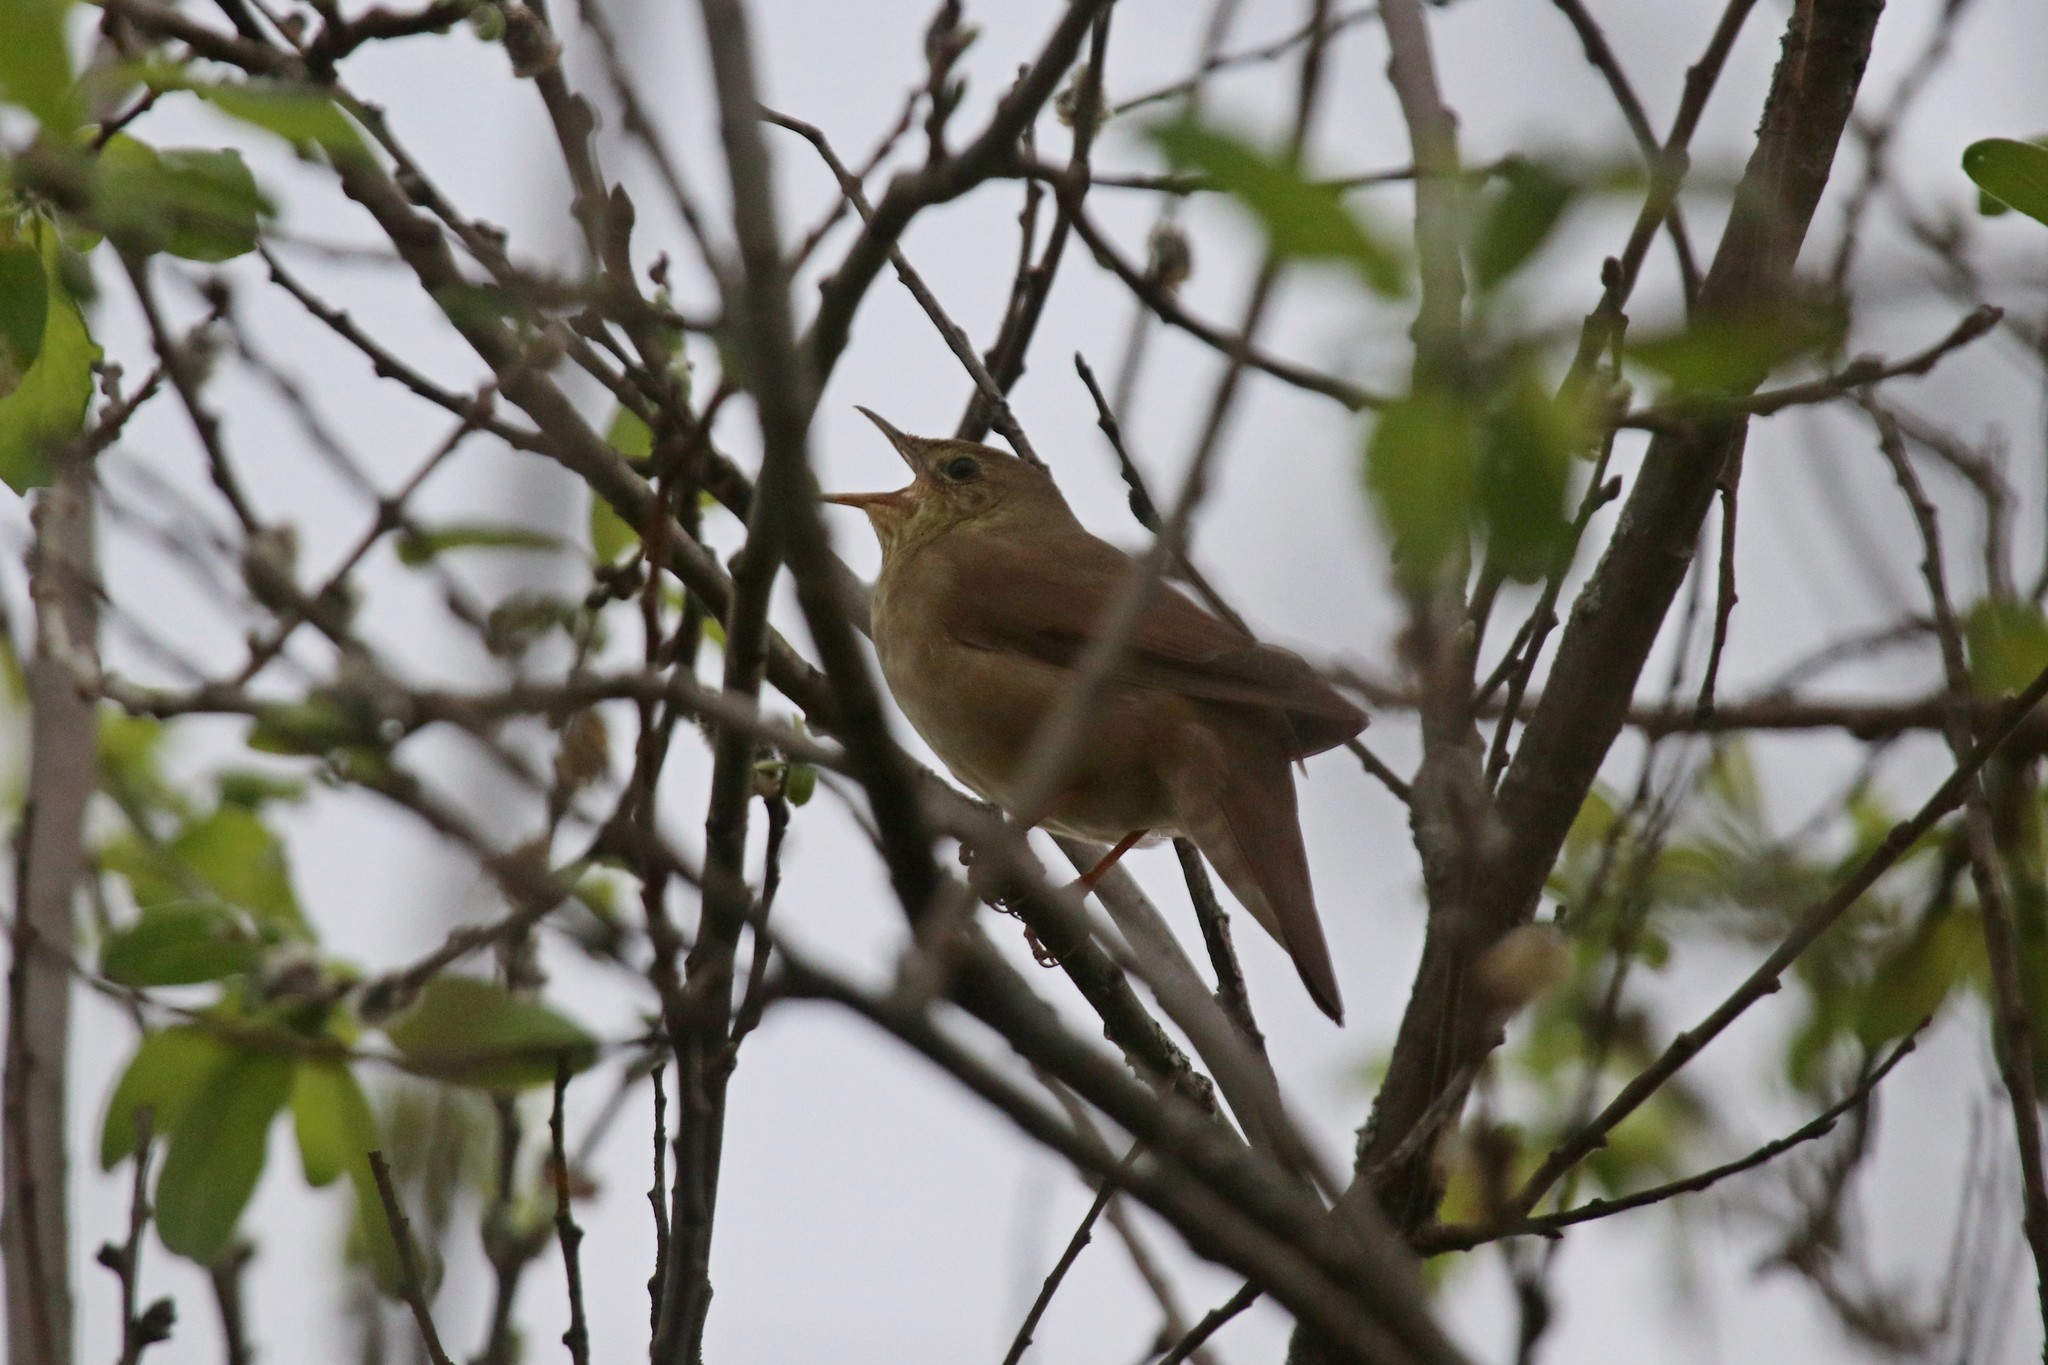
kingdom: Animalia
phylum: Chordata
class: Aves
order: Passeriformes
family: Locustellidae
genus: Locustella
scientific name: Locustella fluviatilis
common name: River warbler
